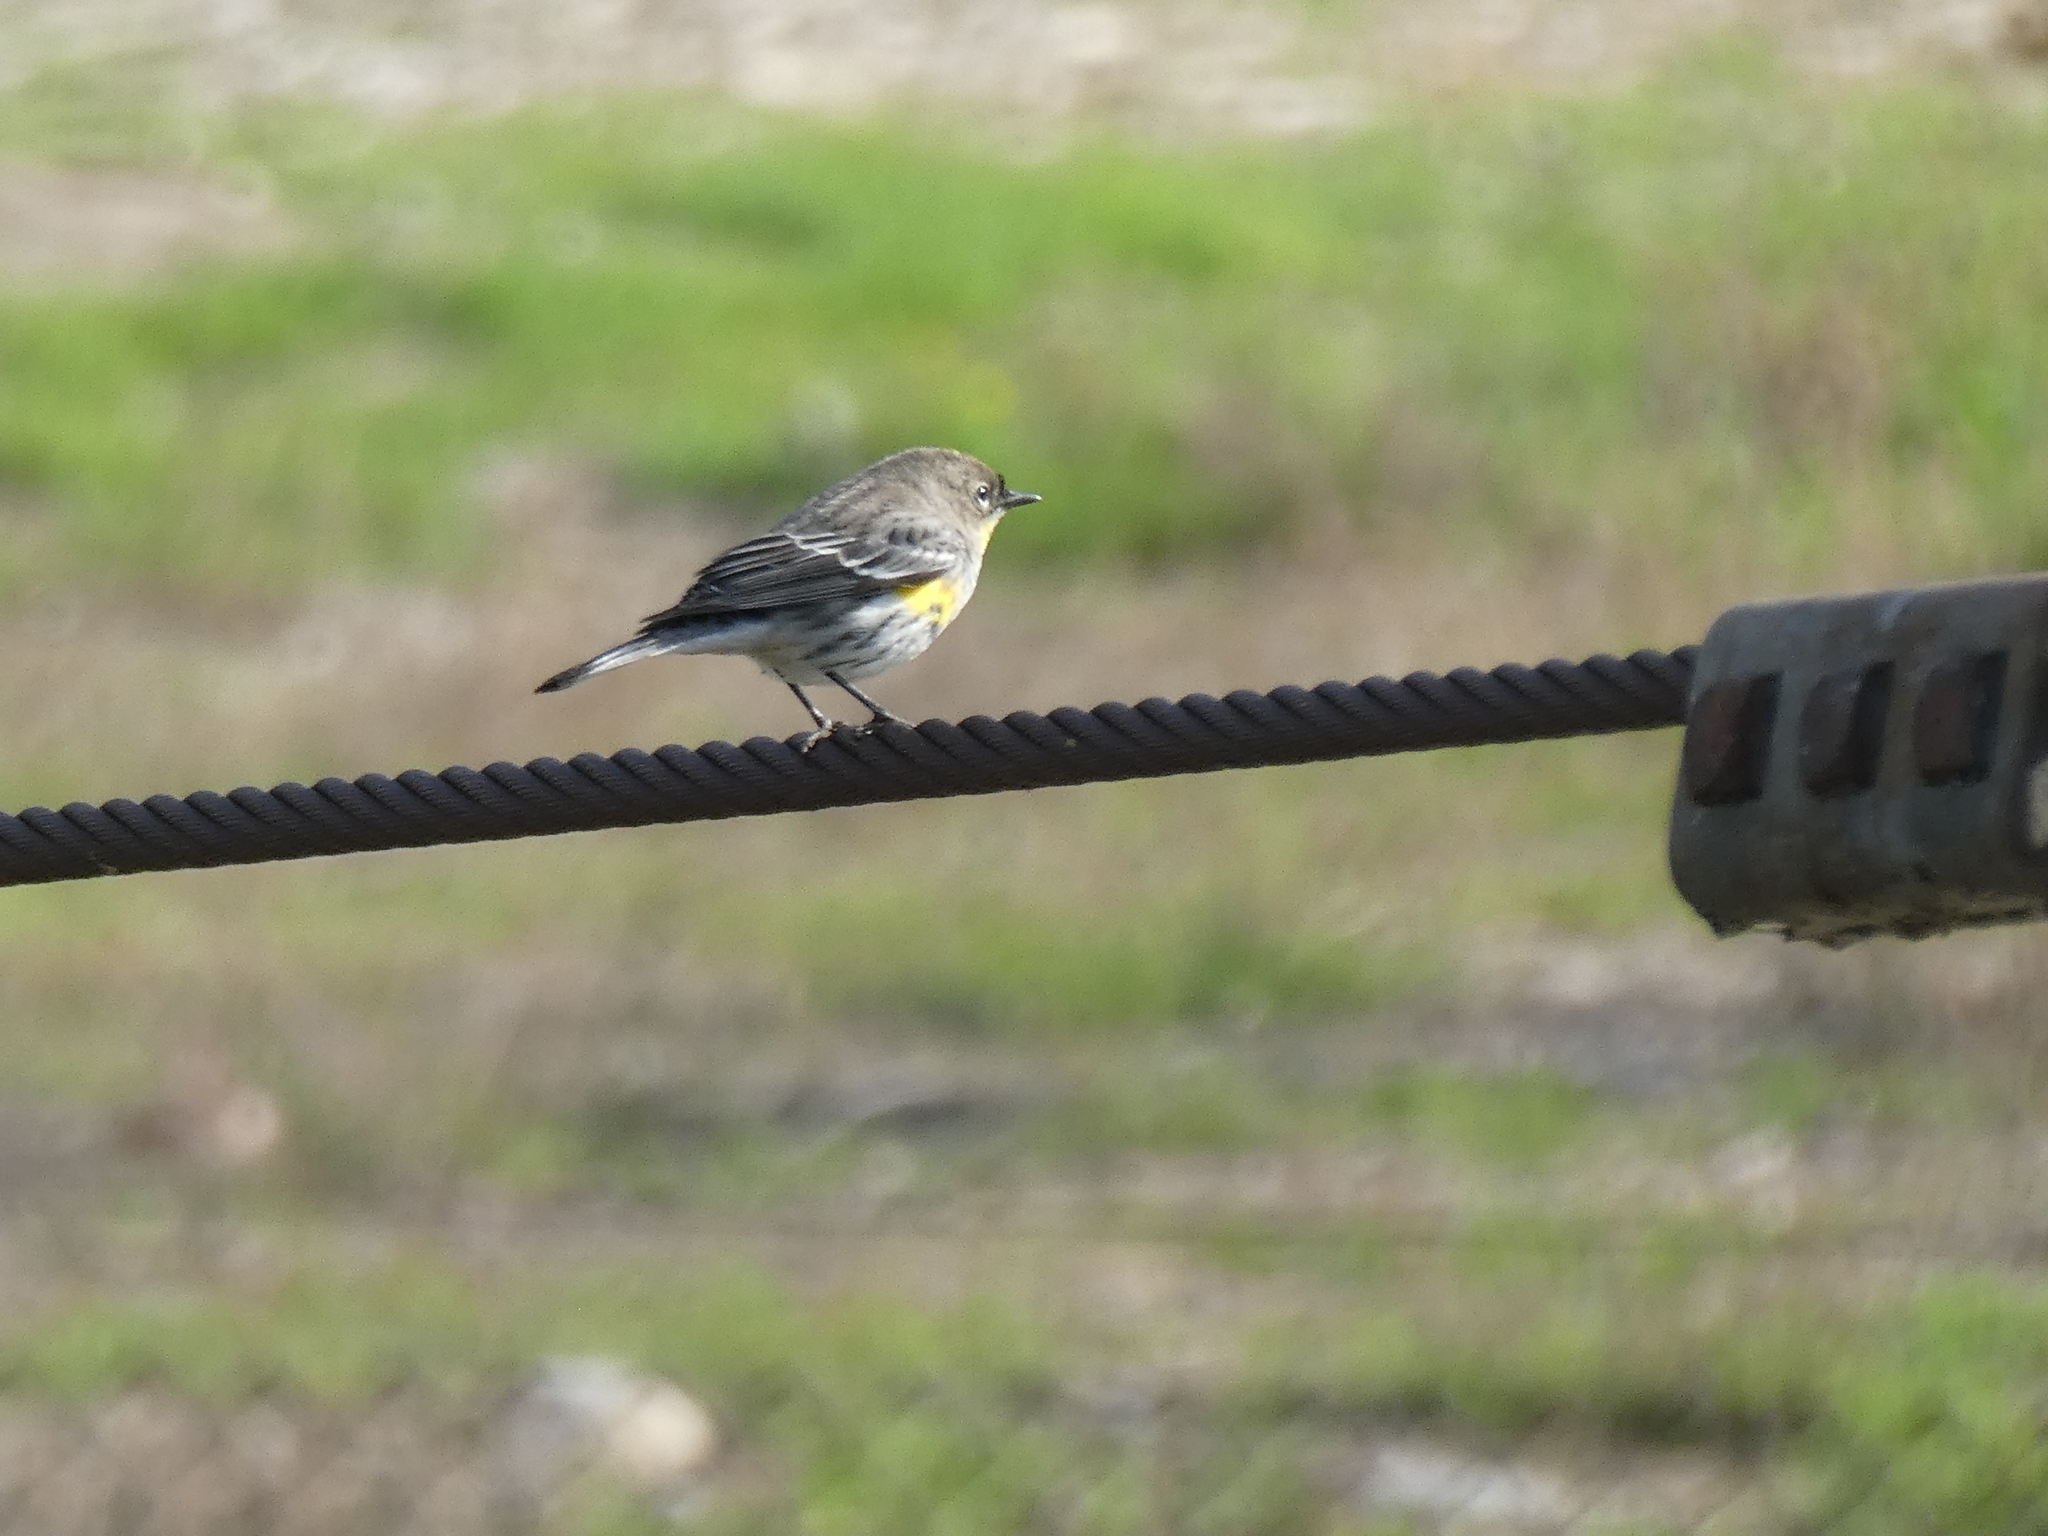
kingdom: Animalia
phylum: Chordata
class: Aves
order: Passeriformes
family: Parulidae
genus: Setophaga
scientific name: Setophaga coronata
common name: Myrtle warbler
